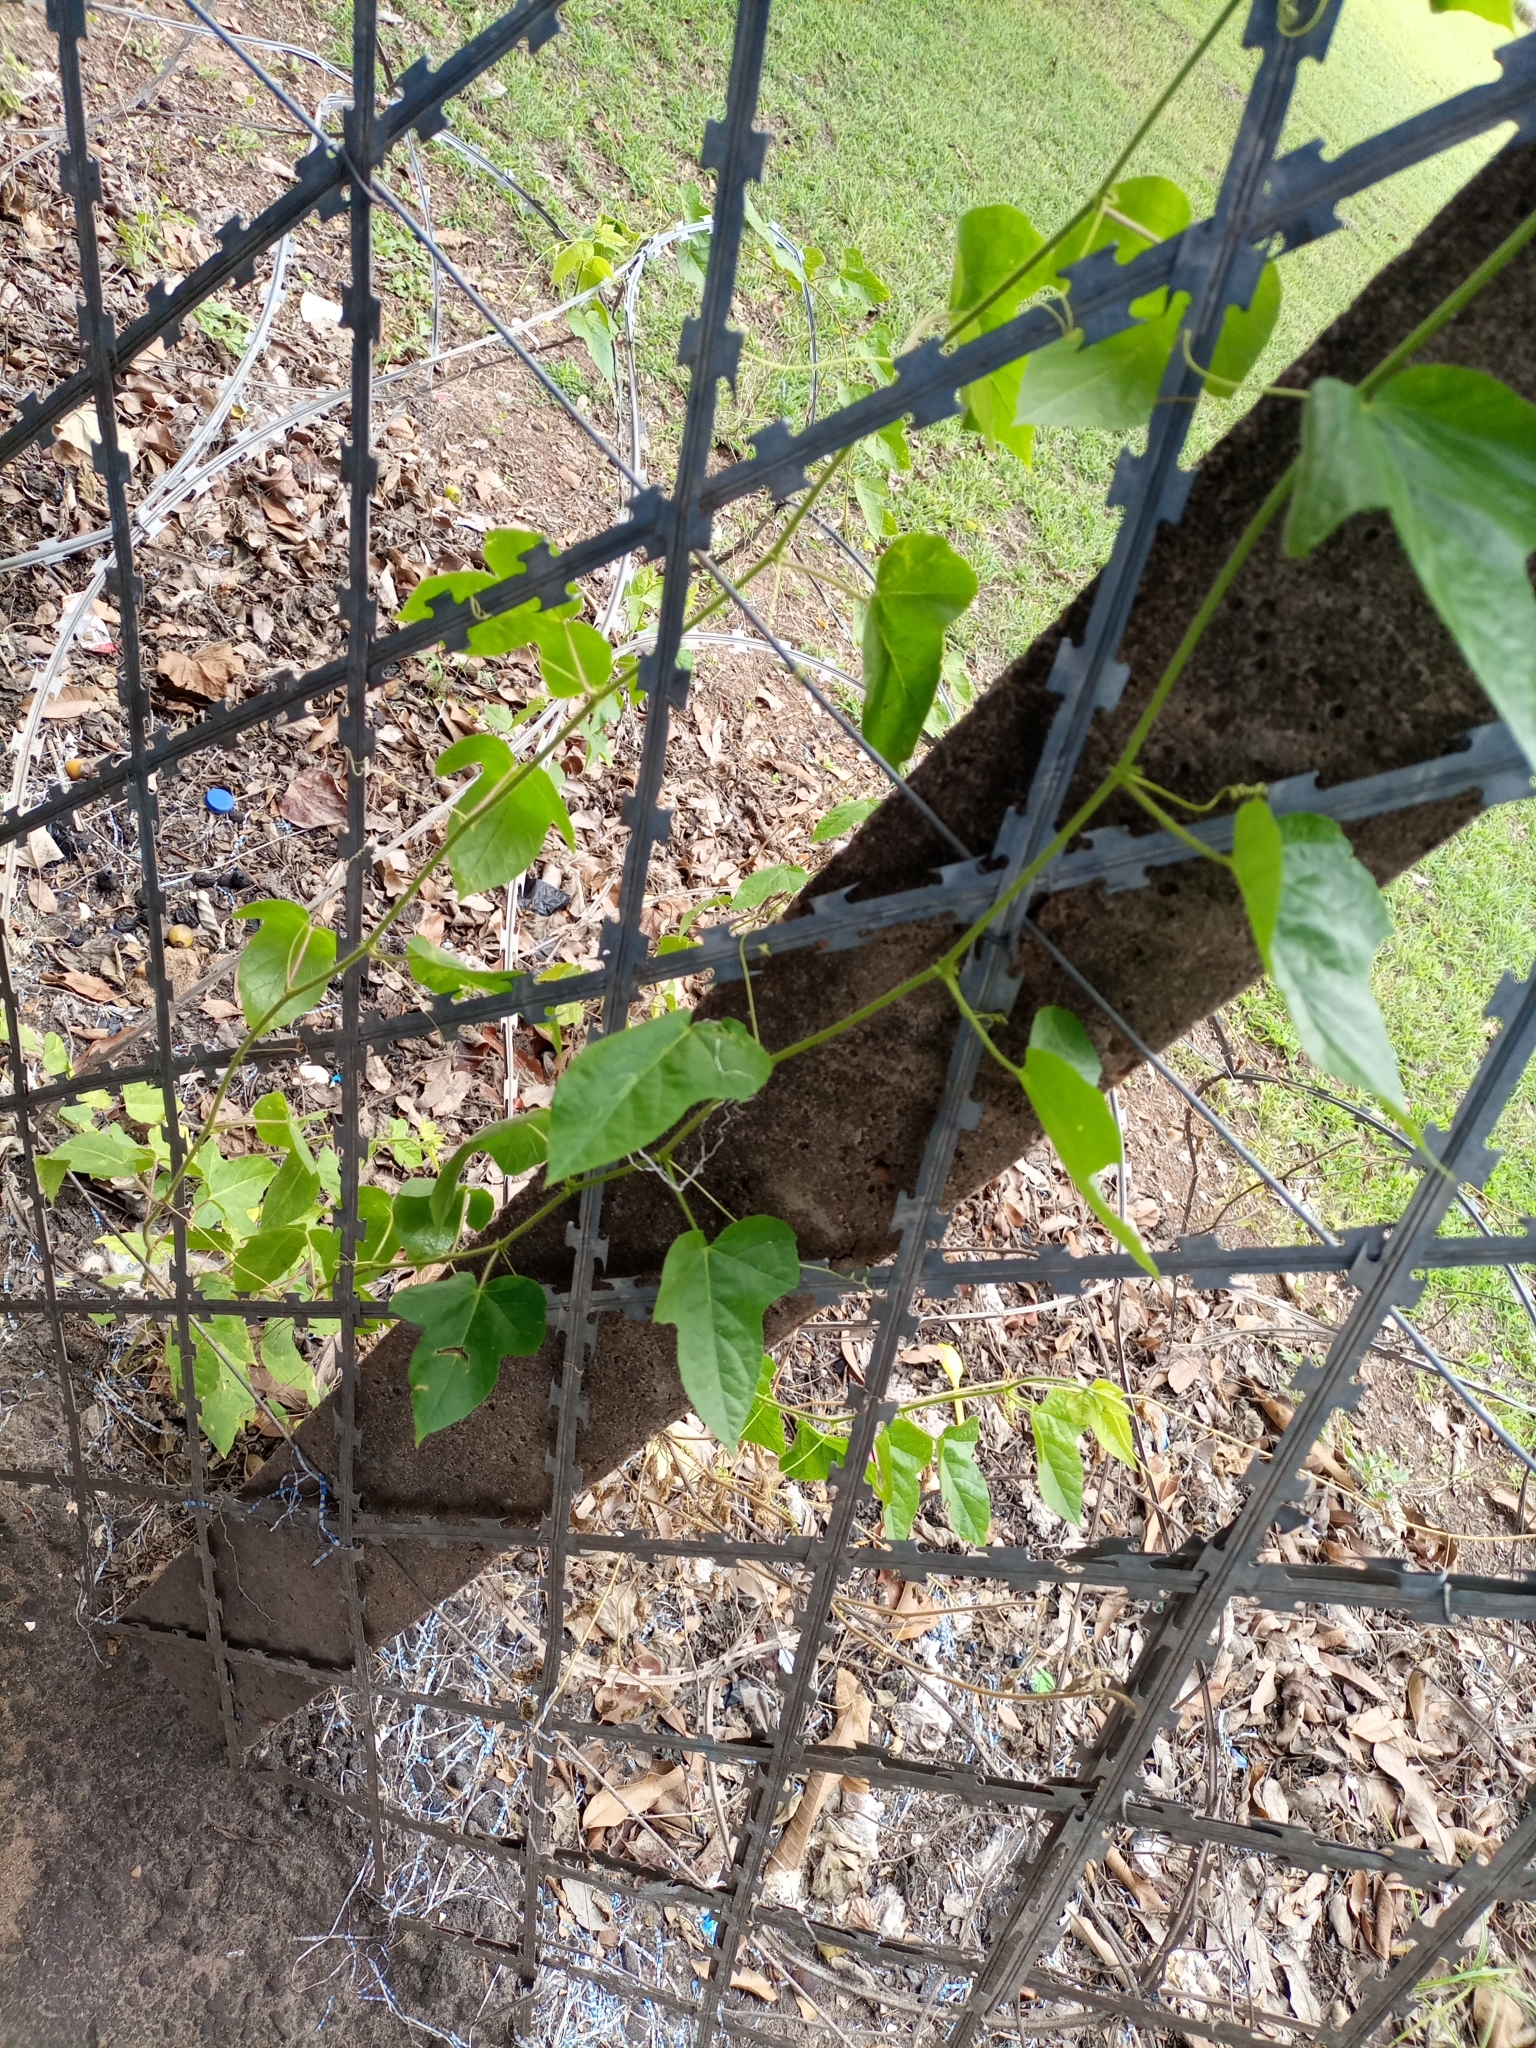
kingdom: Plantae
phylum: Tracheophyta
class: Magnoliopsida
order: Malpighiales
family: Passifloraceae
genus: Passiflora
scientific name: Passiflora foetida
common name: Fetid passionflower
